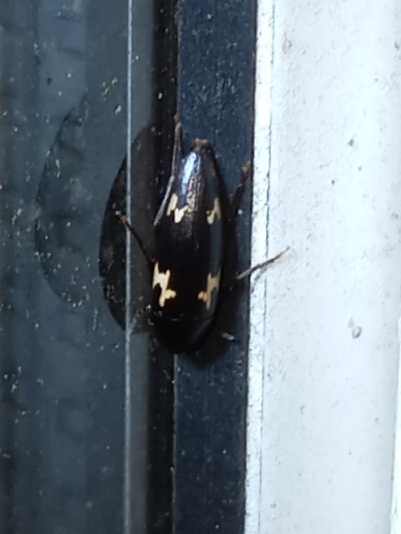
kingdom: Animalia
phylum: Arthropoda
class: Insecta
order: Coleoptera
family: Melandryidae
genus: Dircaea
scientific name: Dircaea liturata
